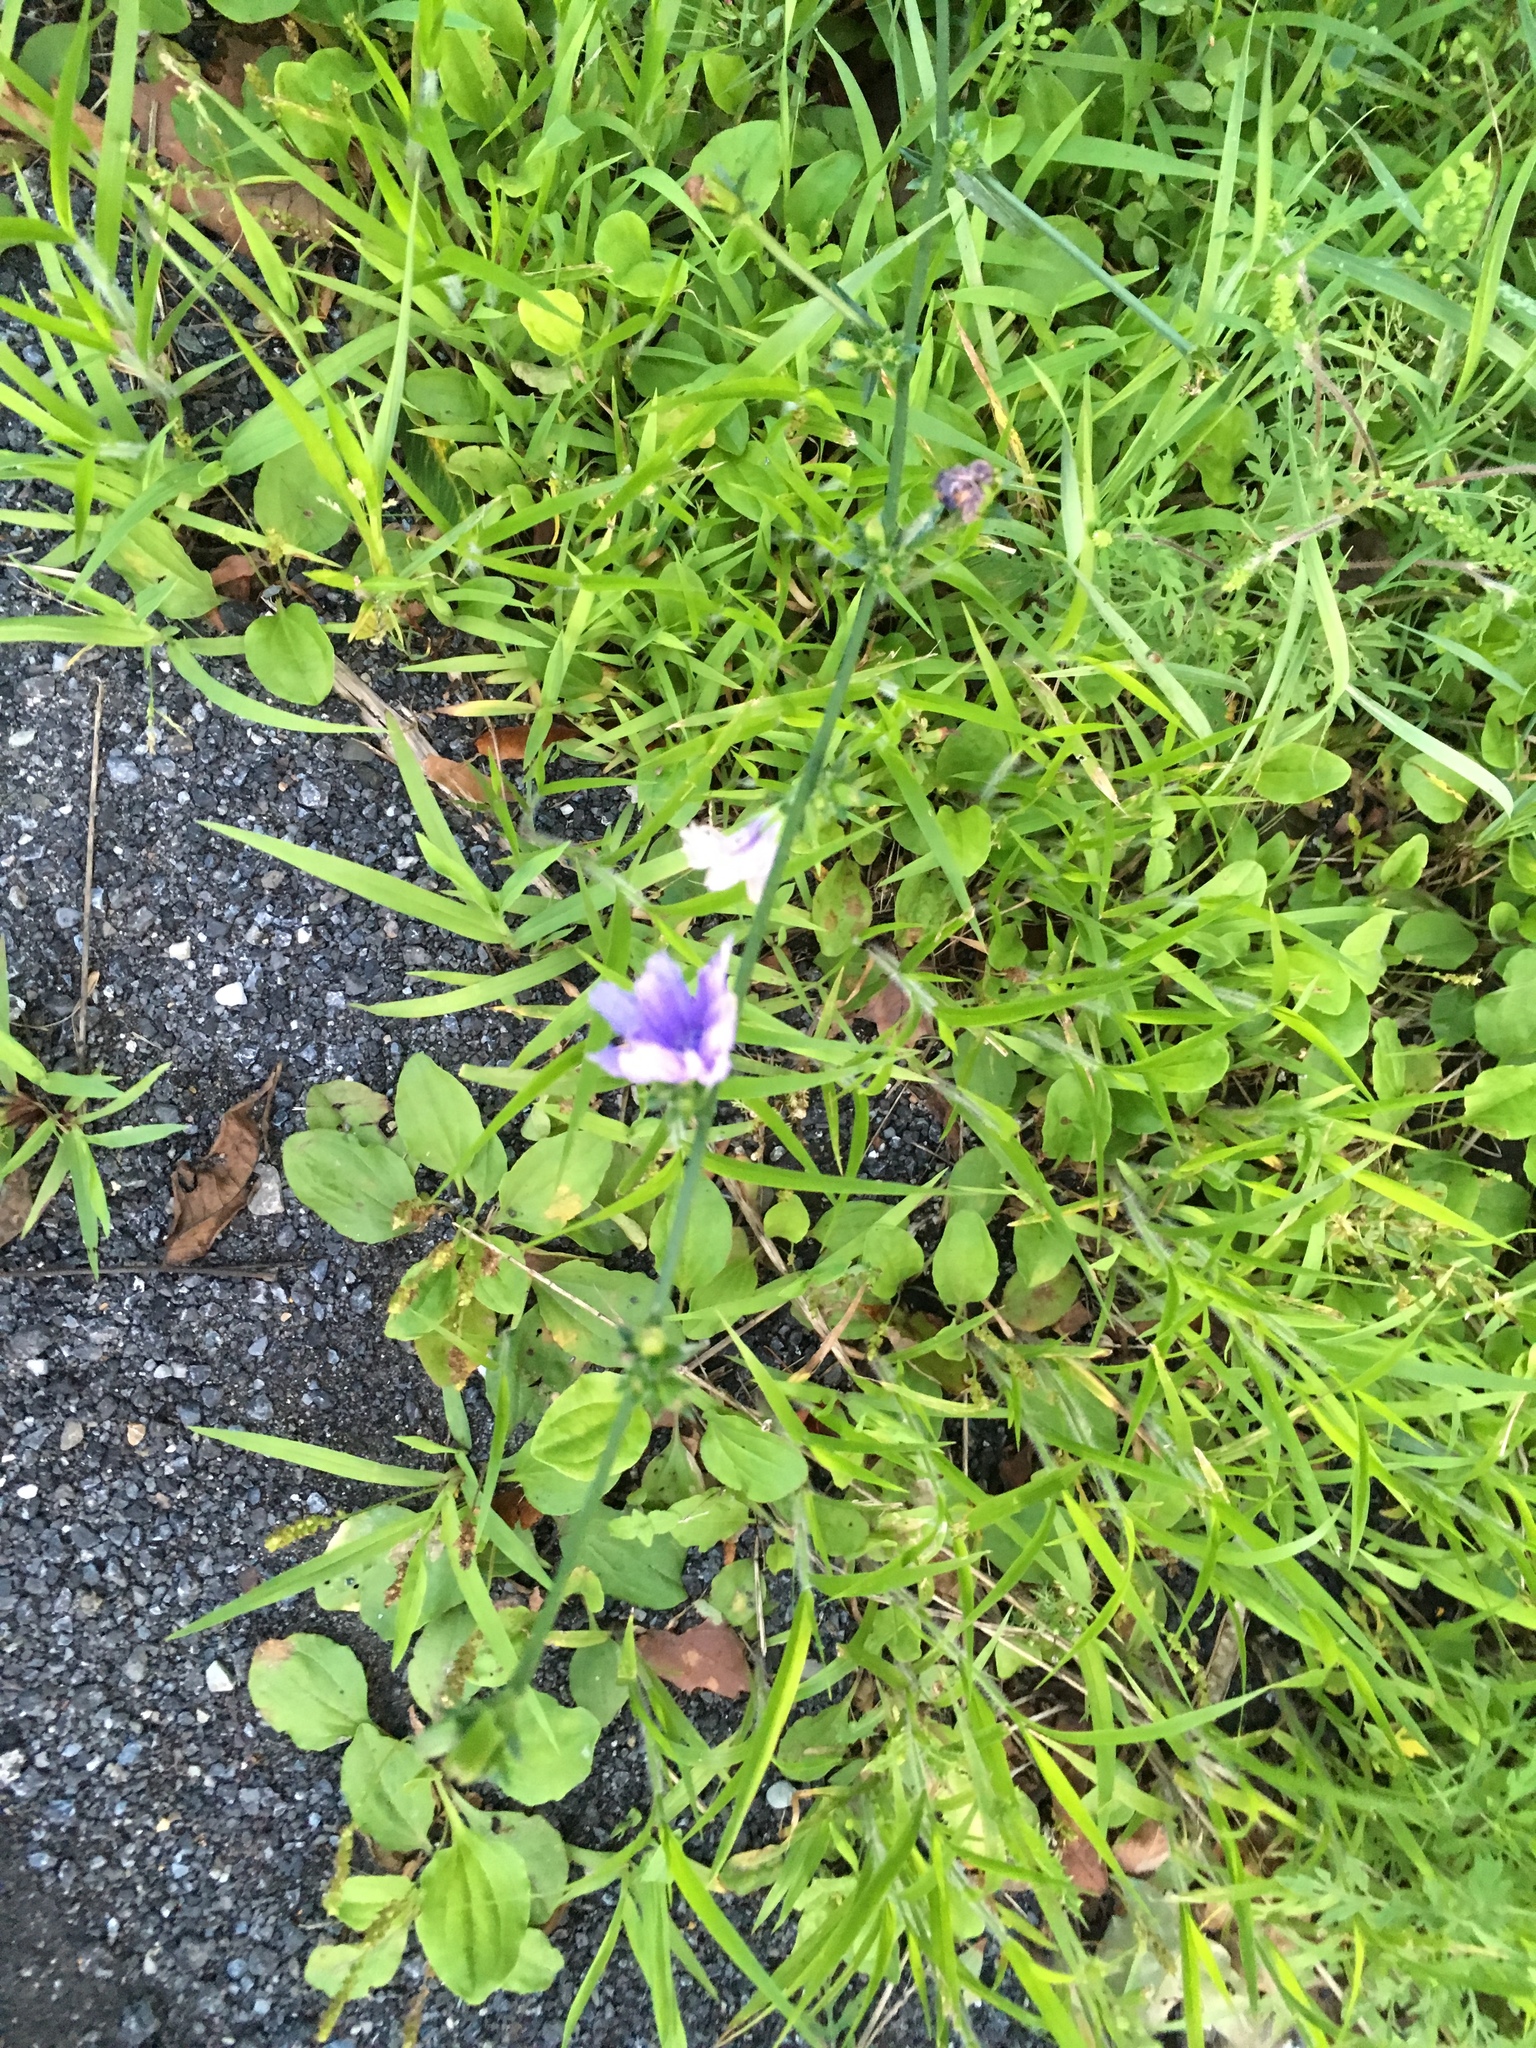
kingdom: Plantae
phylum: Tracheophyta
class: Magnoliopsida
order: Asterales
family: Asteraceae
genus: Cichorium
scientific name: Cichorium intybus
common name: Chicory
